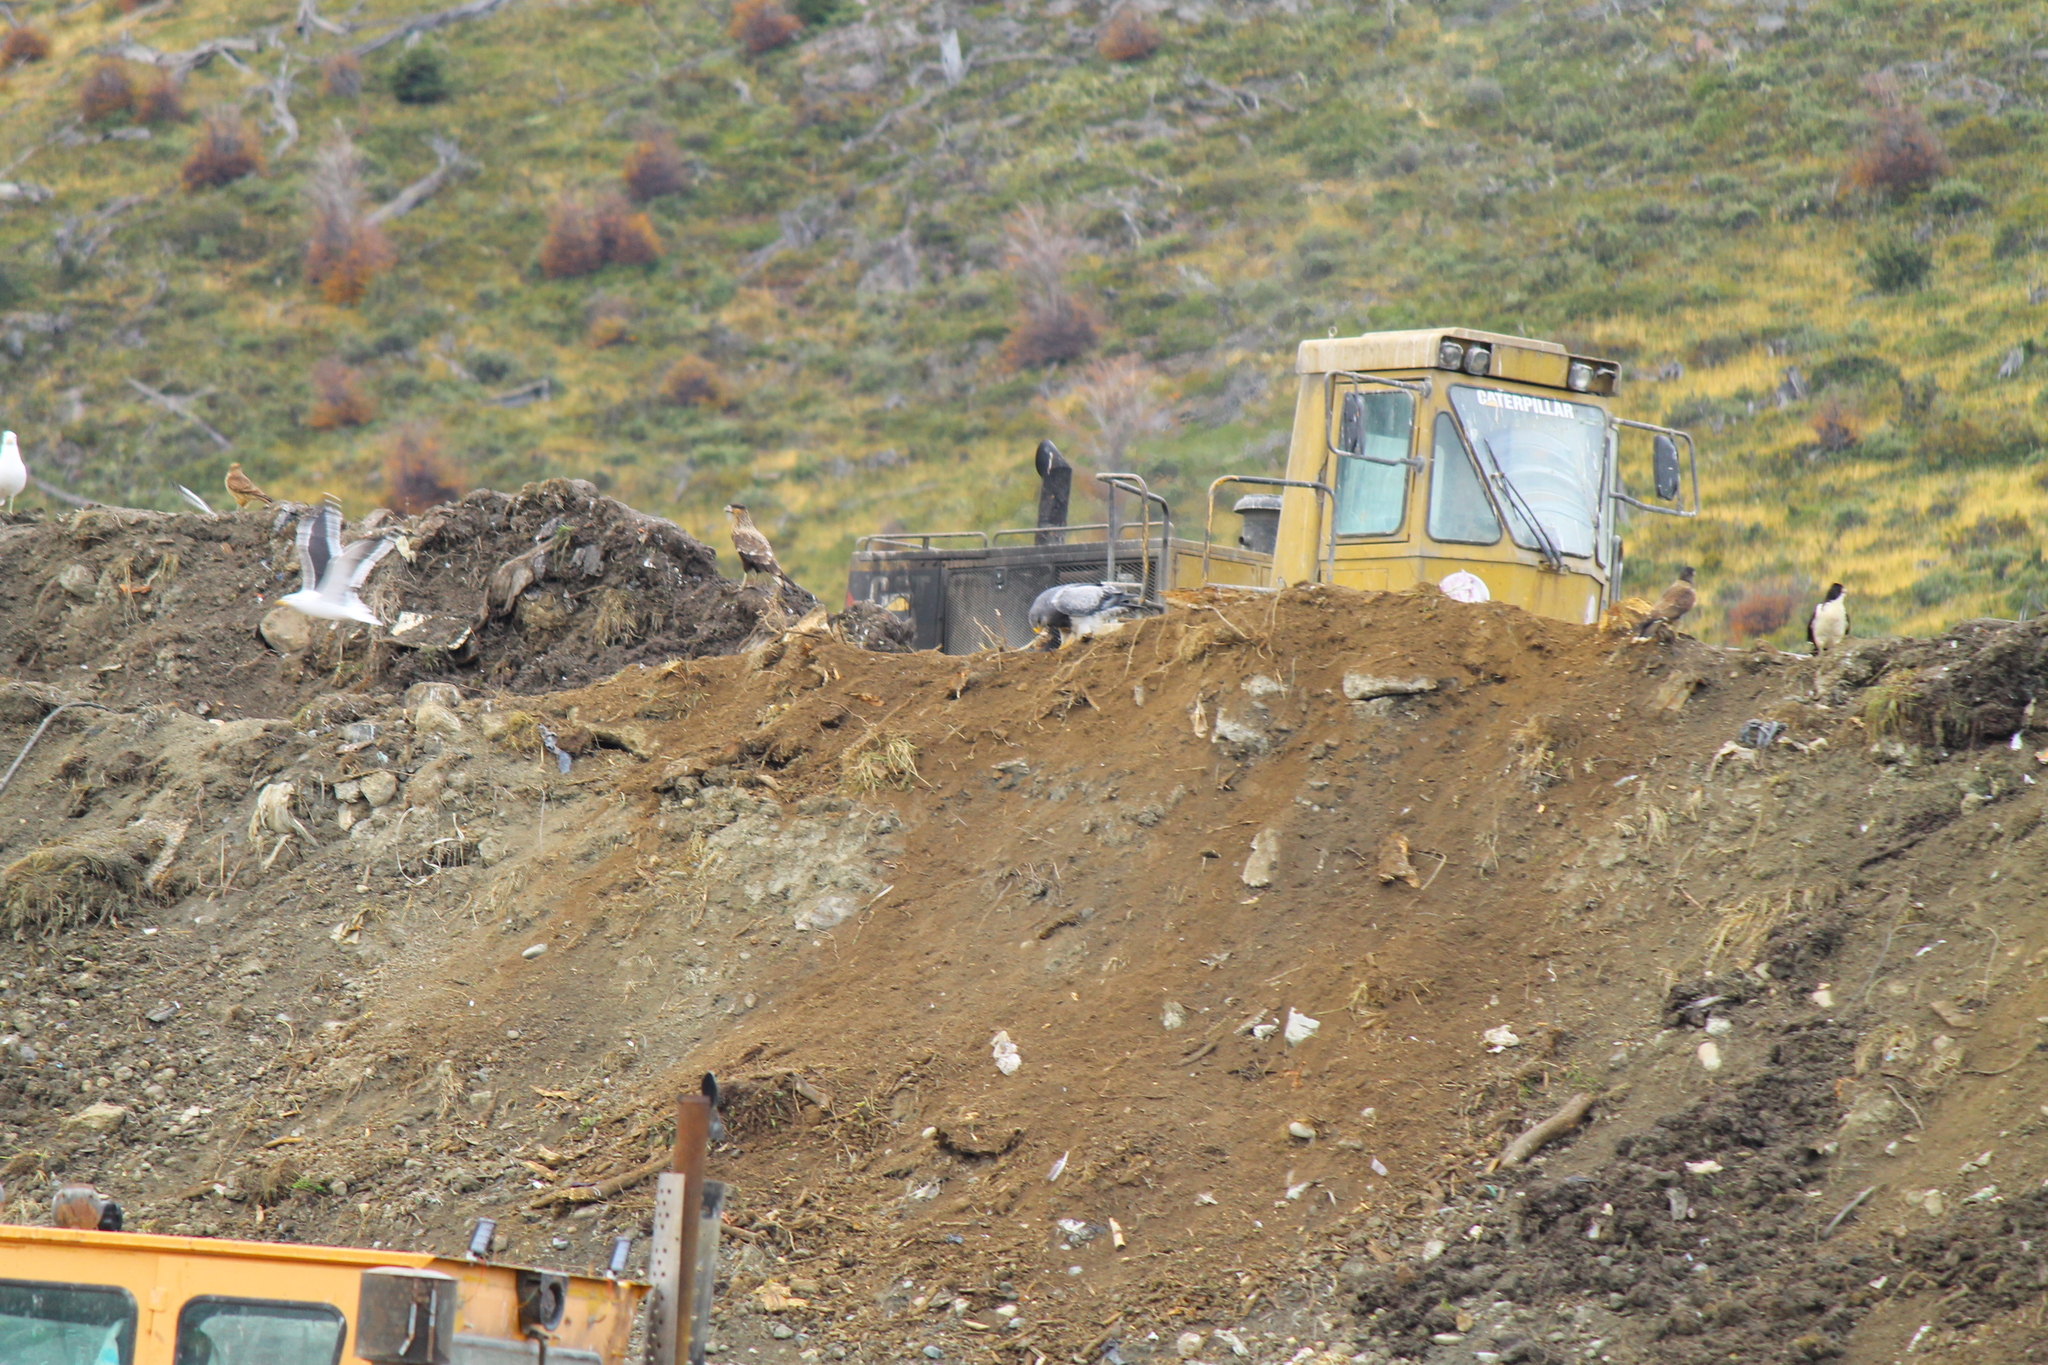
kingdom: Animalia
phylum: Chordata
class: Aves
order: Falconiformes
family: Falconidae
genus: Daptrius
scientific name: Daptrius
